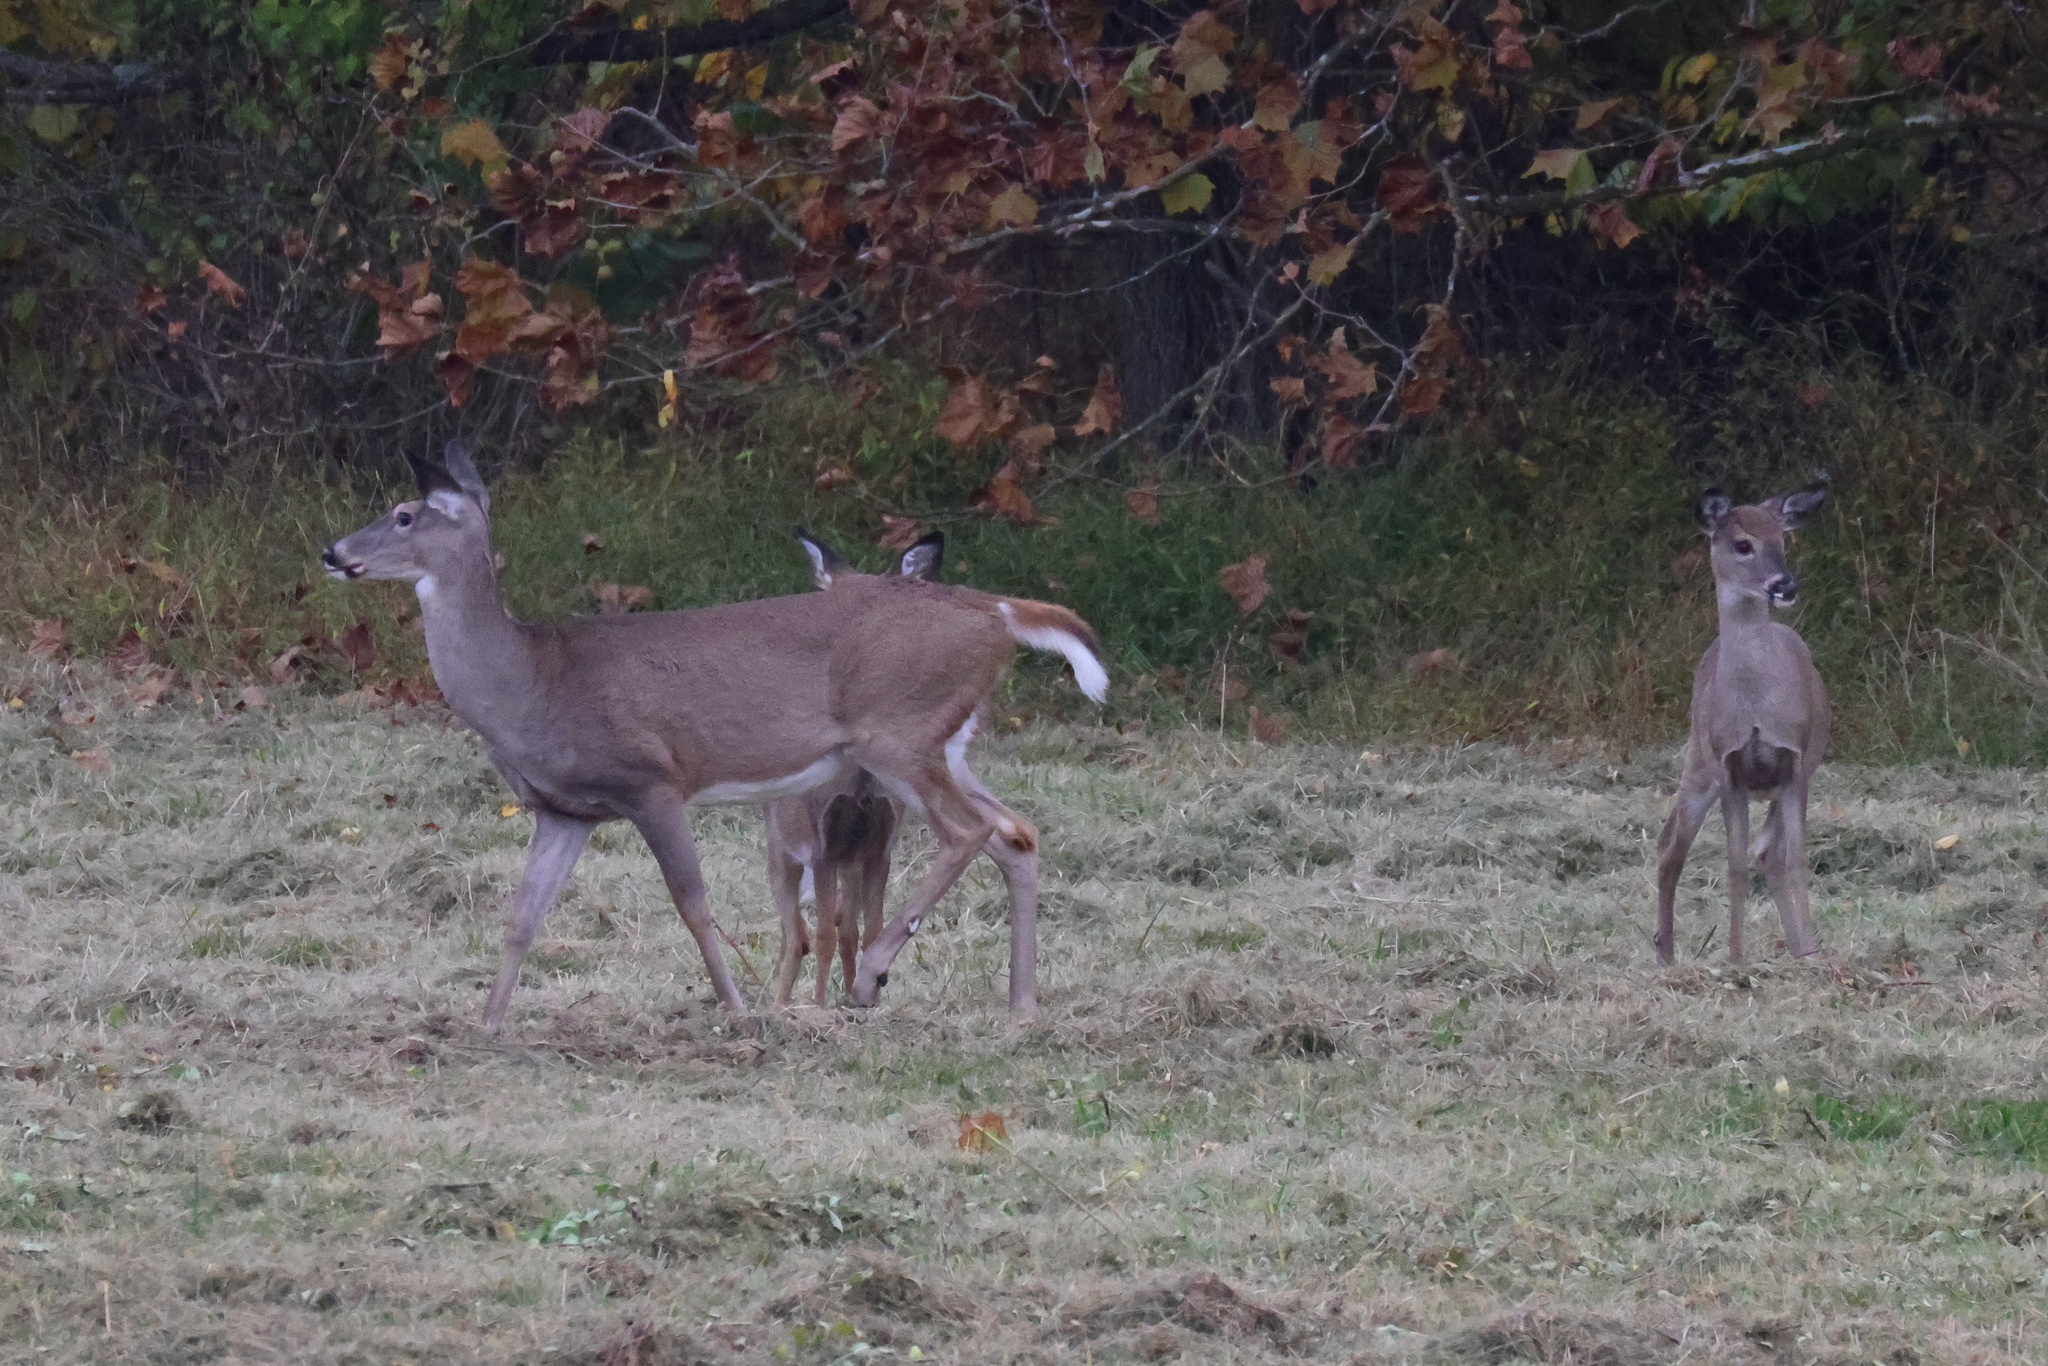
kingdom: Animalia
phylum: Chordata
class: Mammalia
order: Artiodactyla
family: Cervidae
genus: Odocoileus
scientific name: Odocoileus virginianus
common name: White-tailed deer
